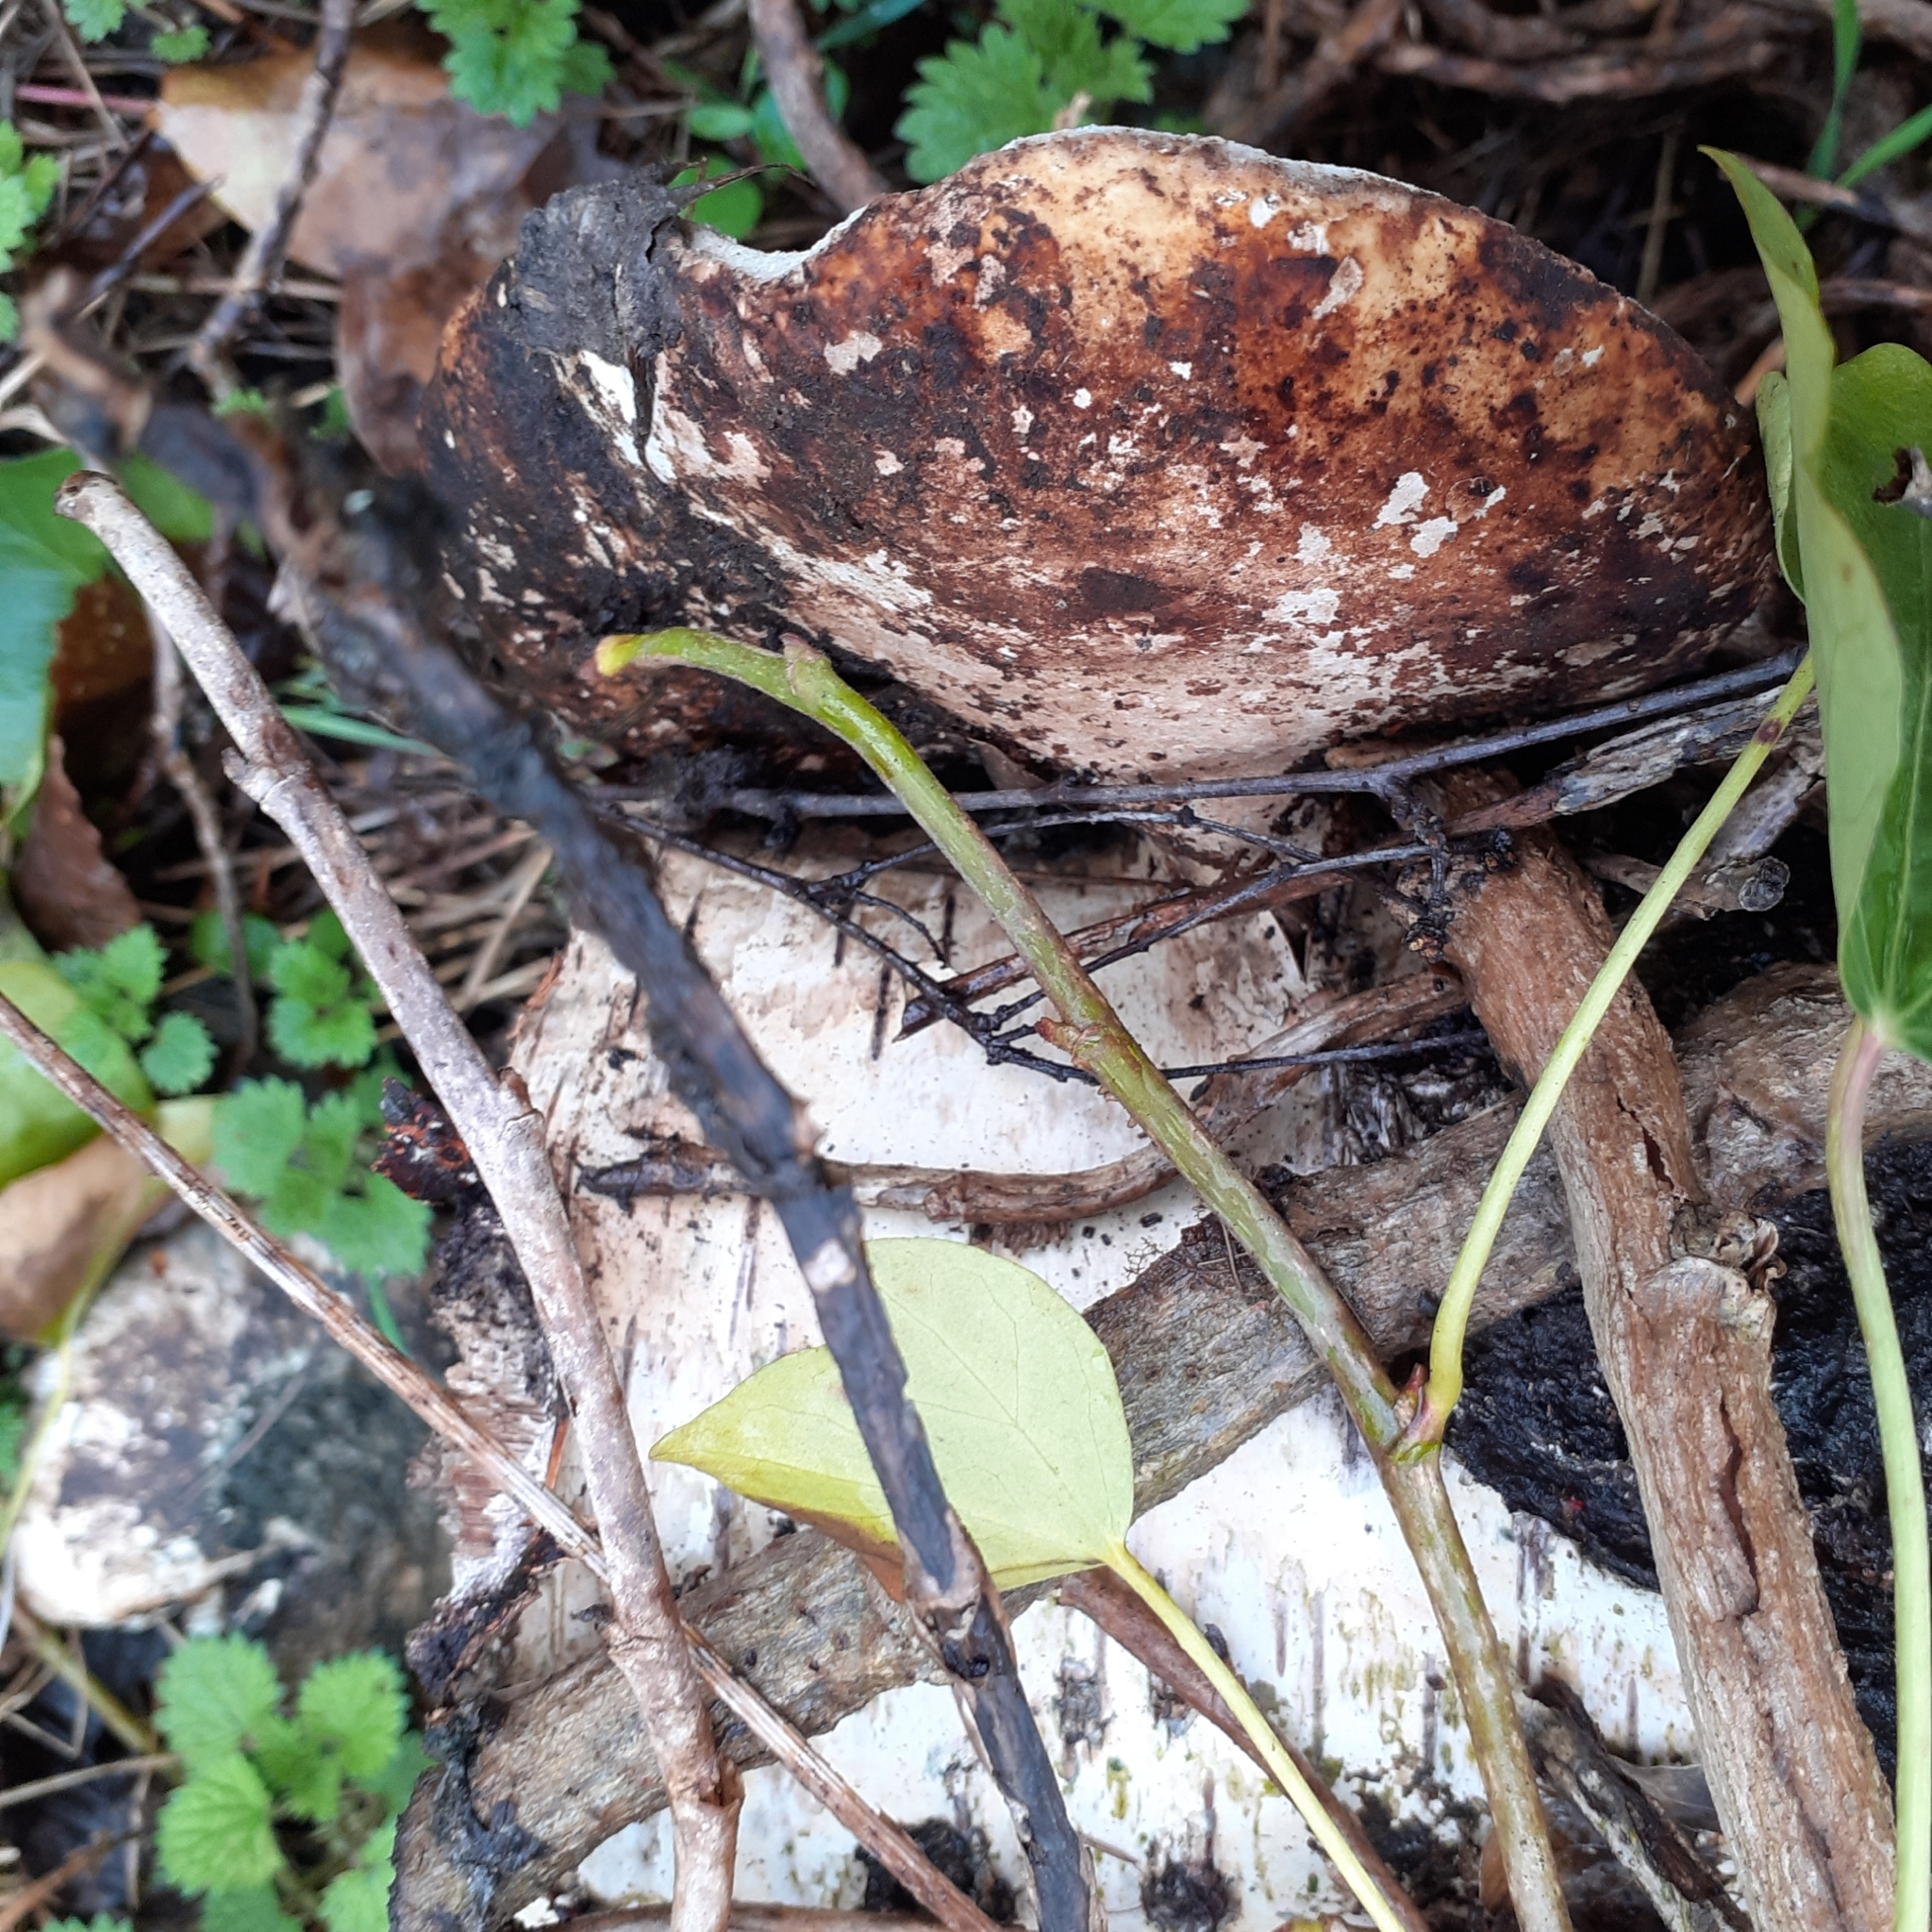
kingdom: Fungi
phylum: Basidiomycota
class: Agaricomycetes
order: Polyporales
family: Fomitopsidaceae
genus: Fomitopsis
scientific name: Fomitopsis betulina
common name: Birch polypore
